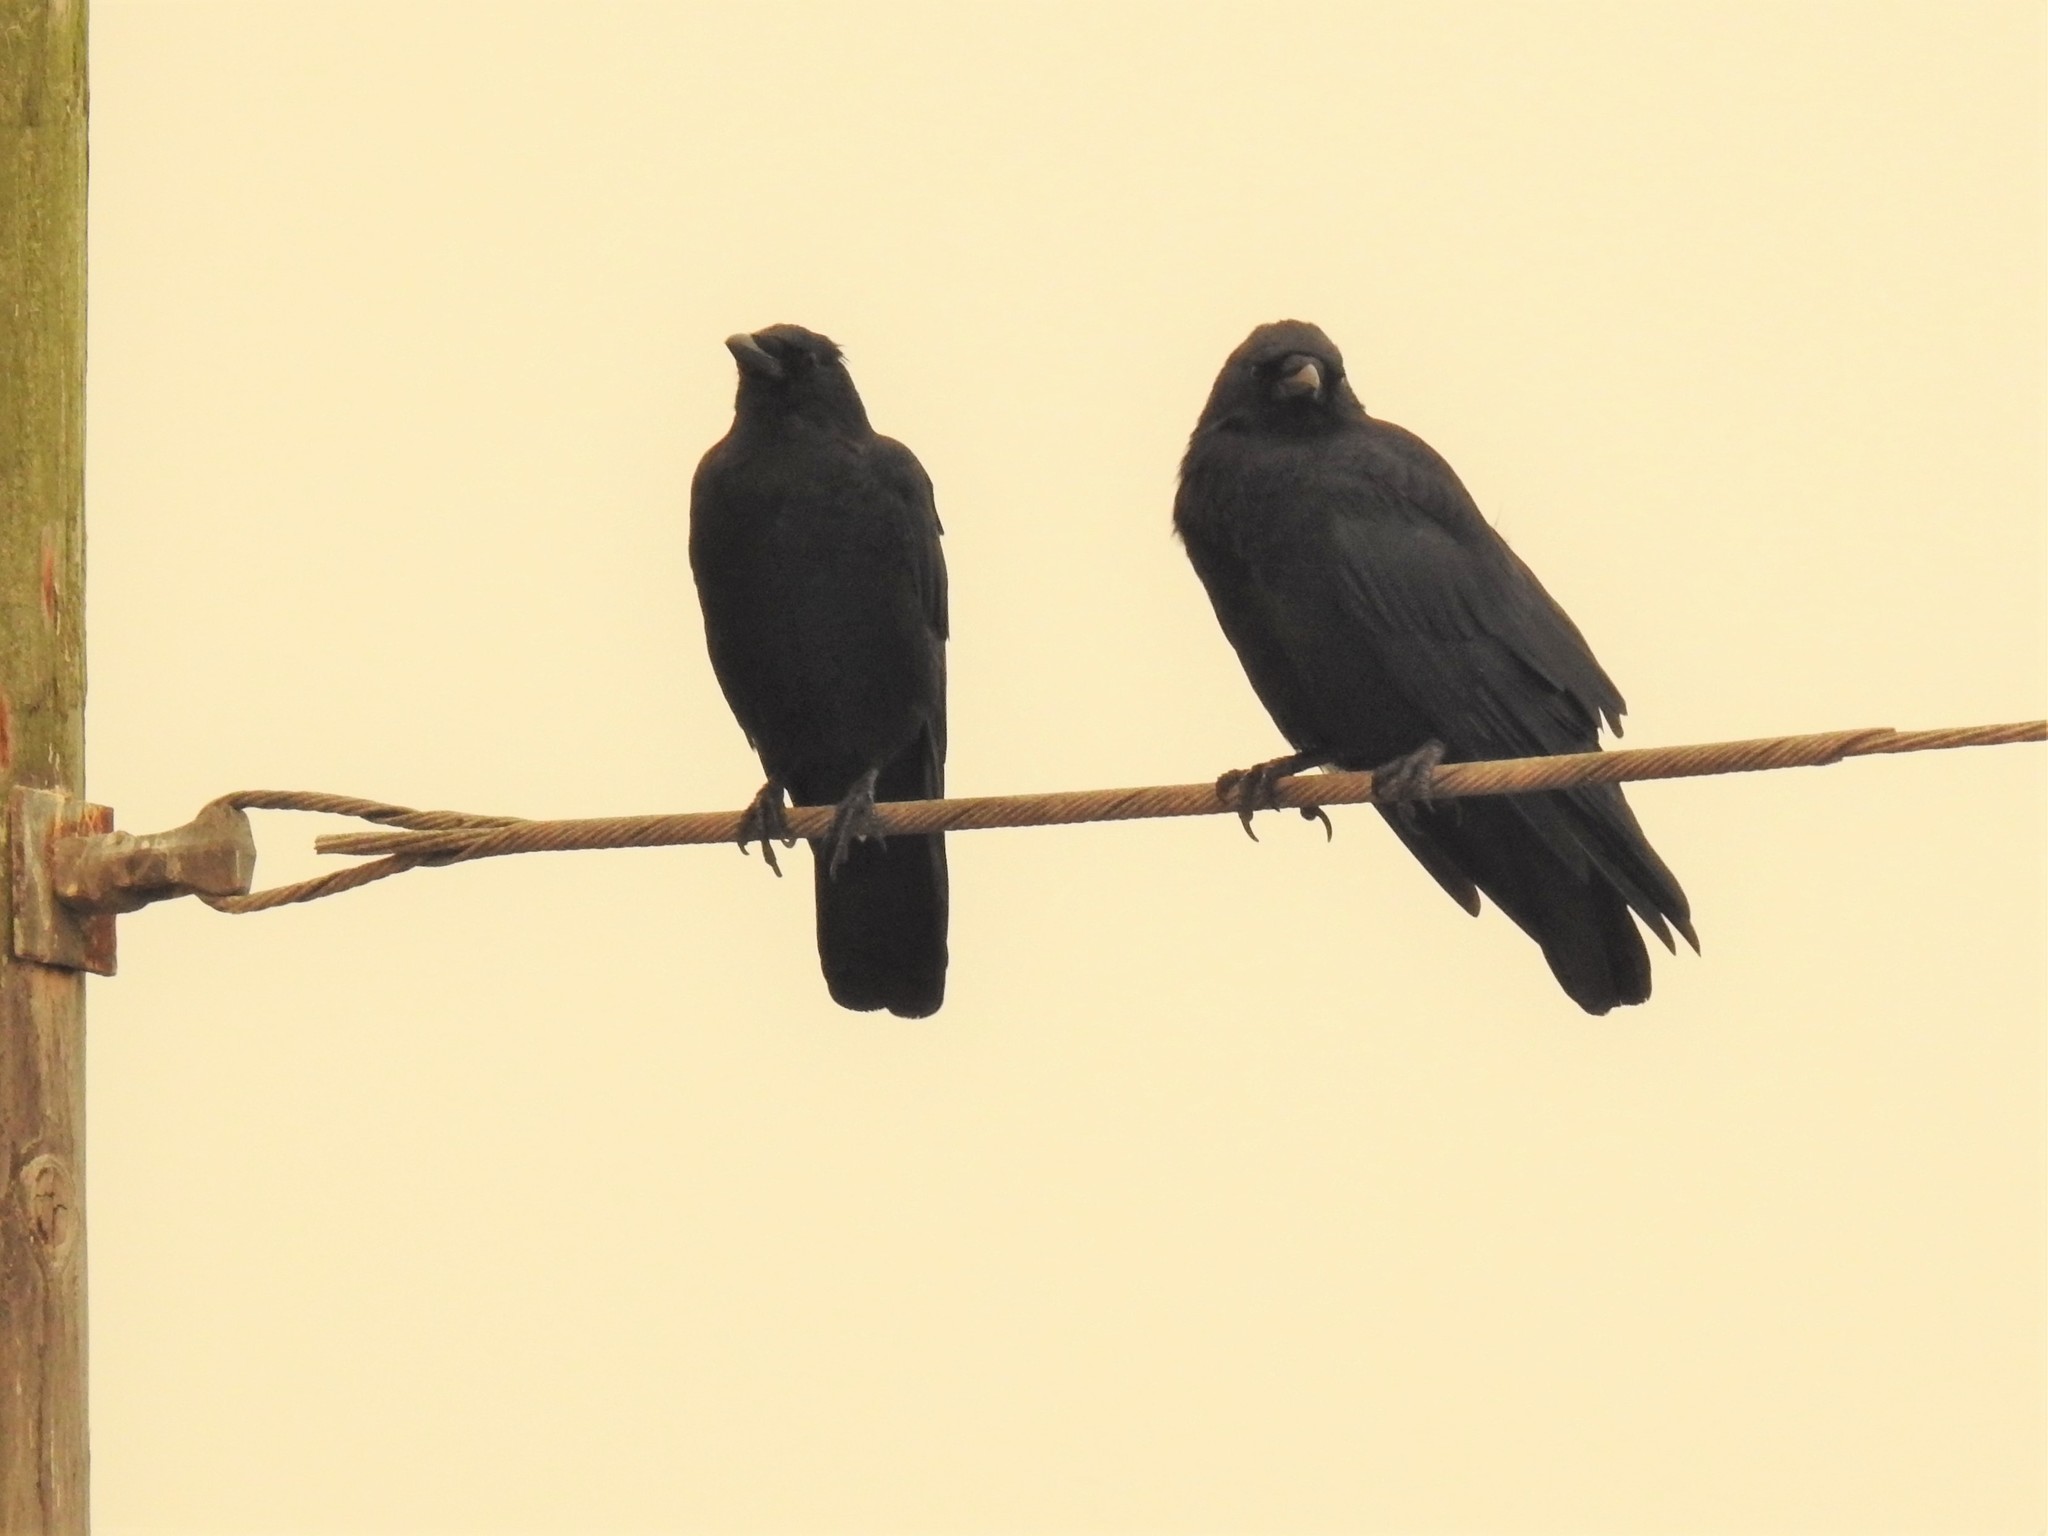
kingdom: Animalia
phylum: Chordata
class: Aves
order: Passeriformes
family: Corvidae
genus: Corvus
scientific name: Corvus brachyrhynchos
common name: American crow
